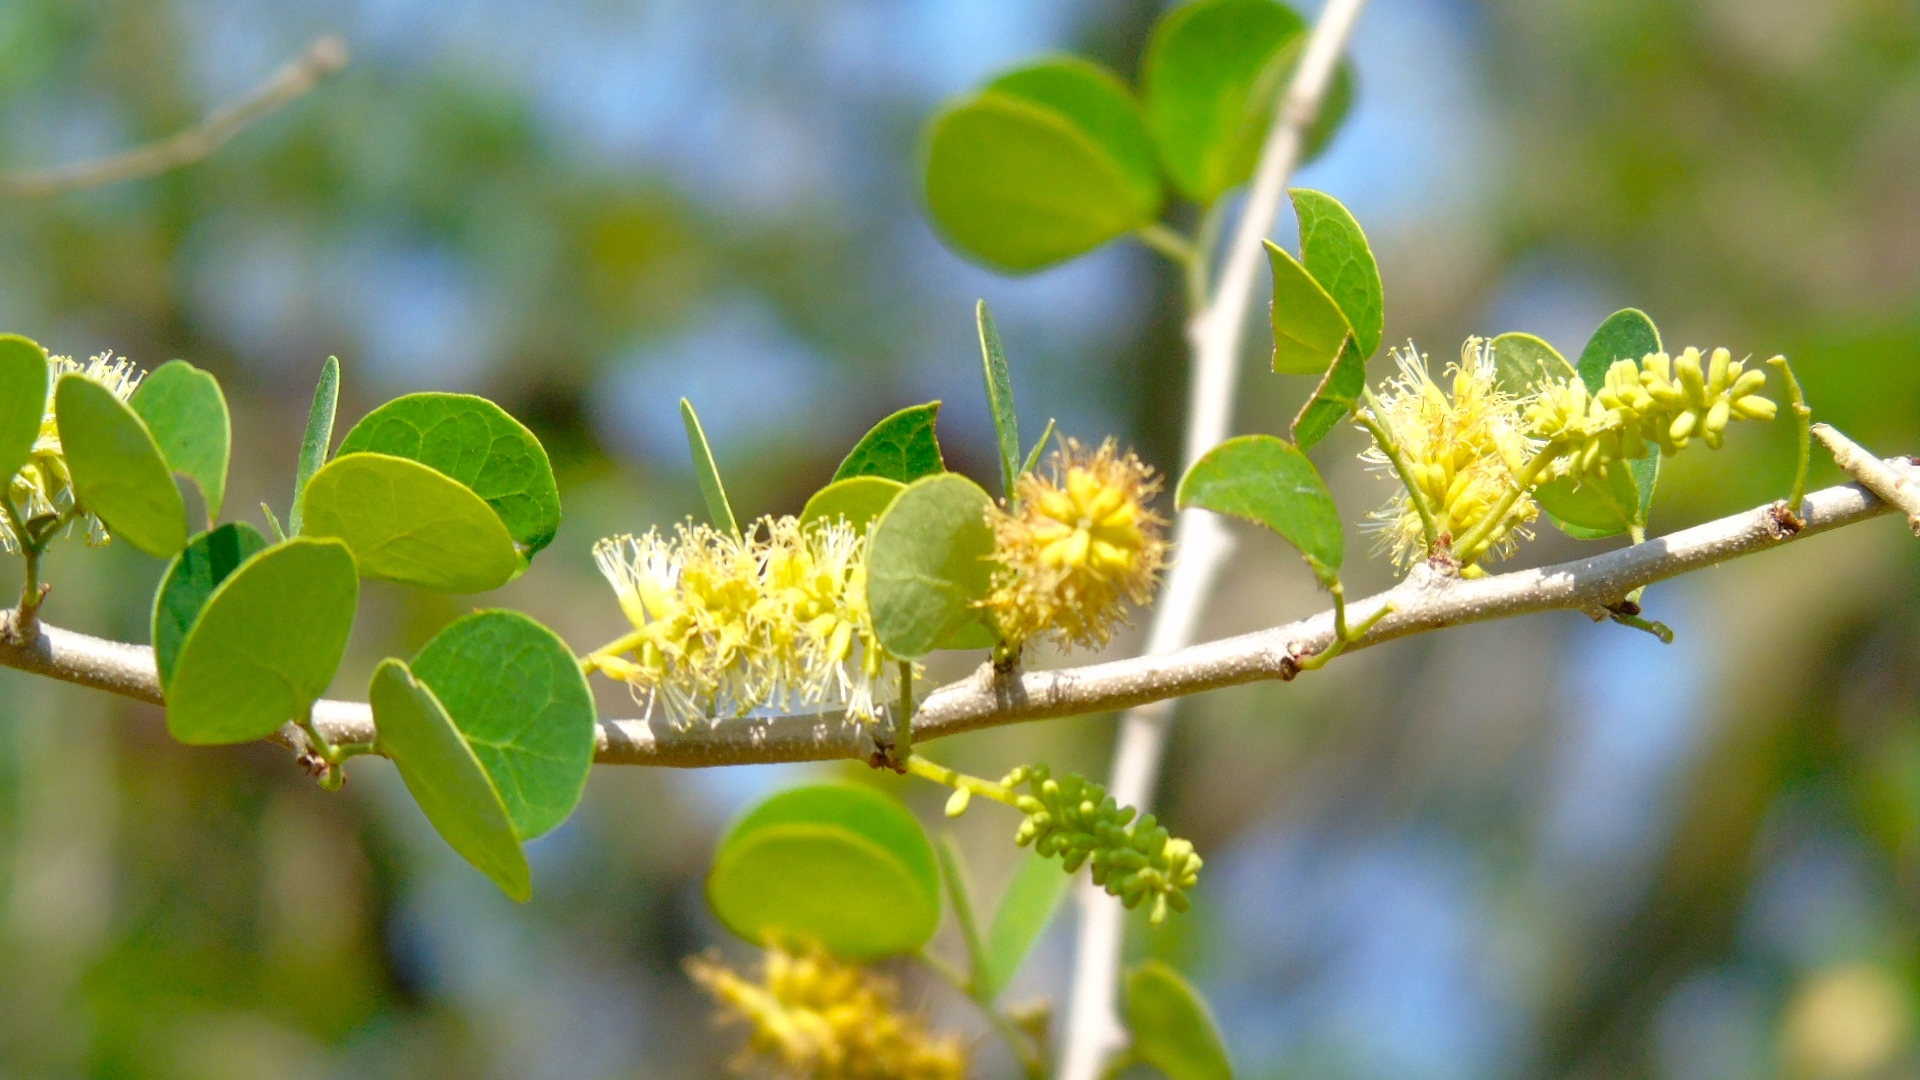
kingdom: Plantae
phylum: Tracheophyta
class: Magnoliopsida
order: Fabales
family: Fabaceae
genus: Microlobius
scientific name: Microlobius foetidus
